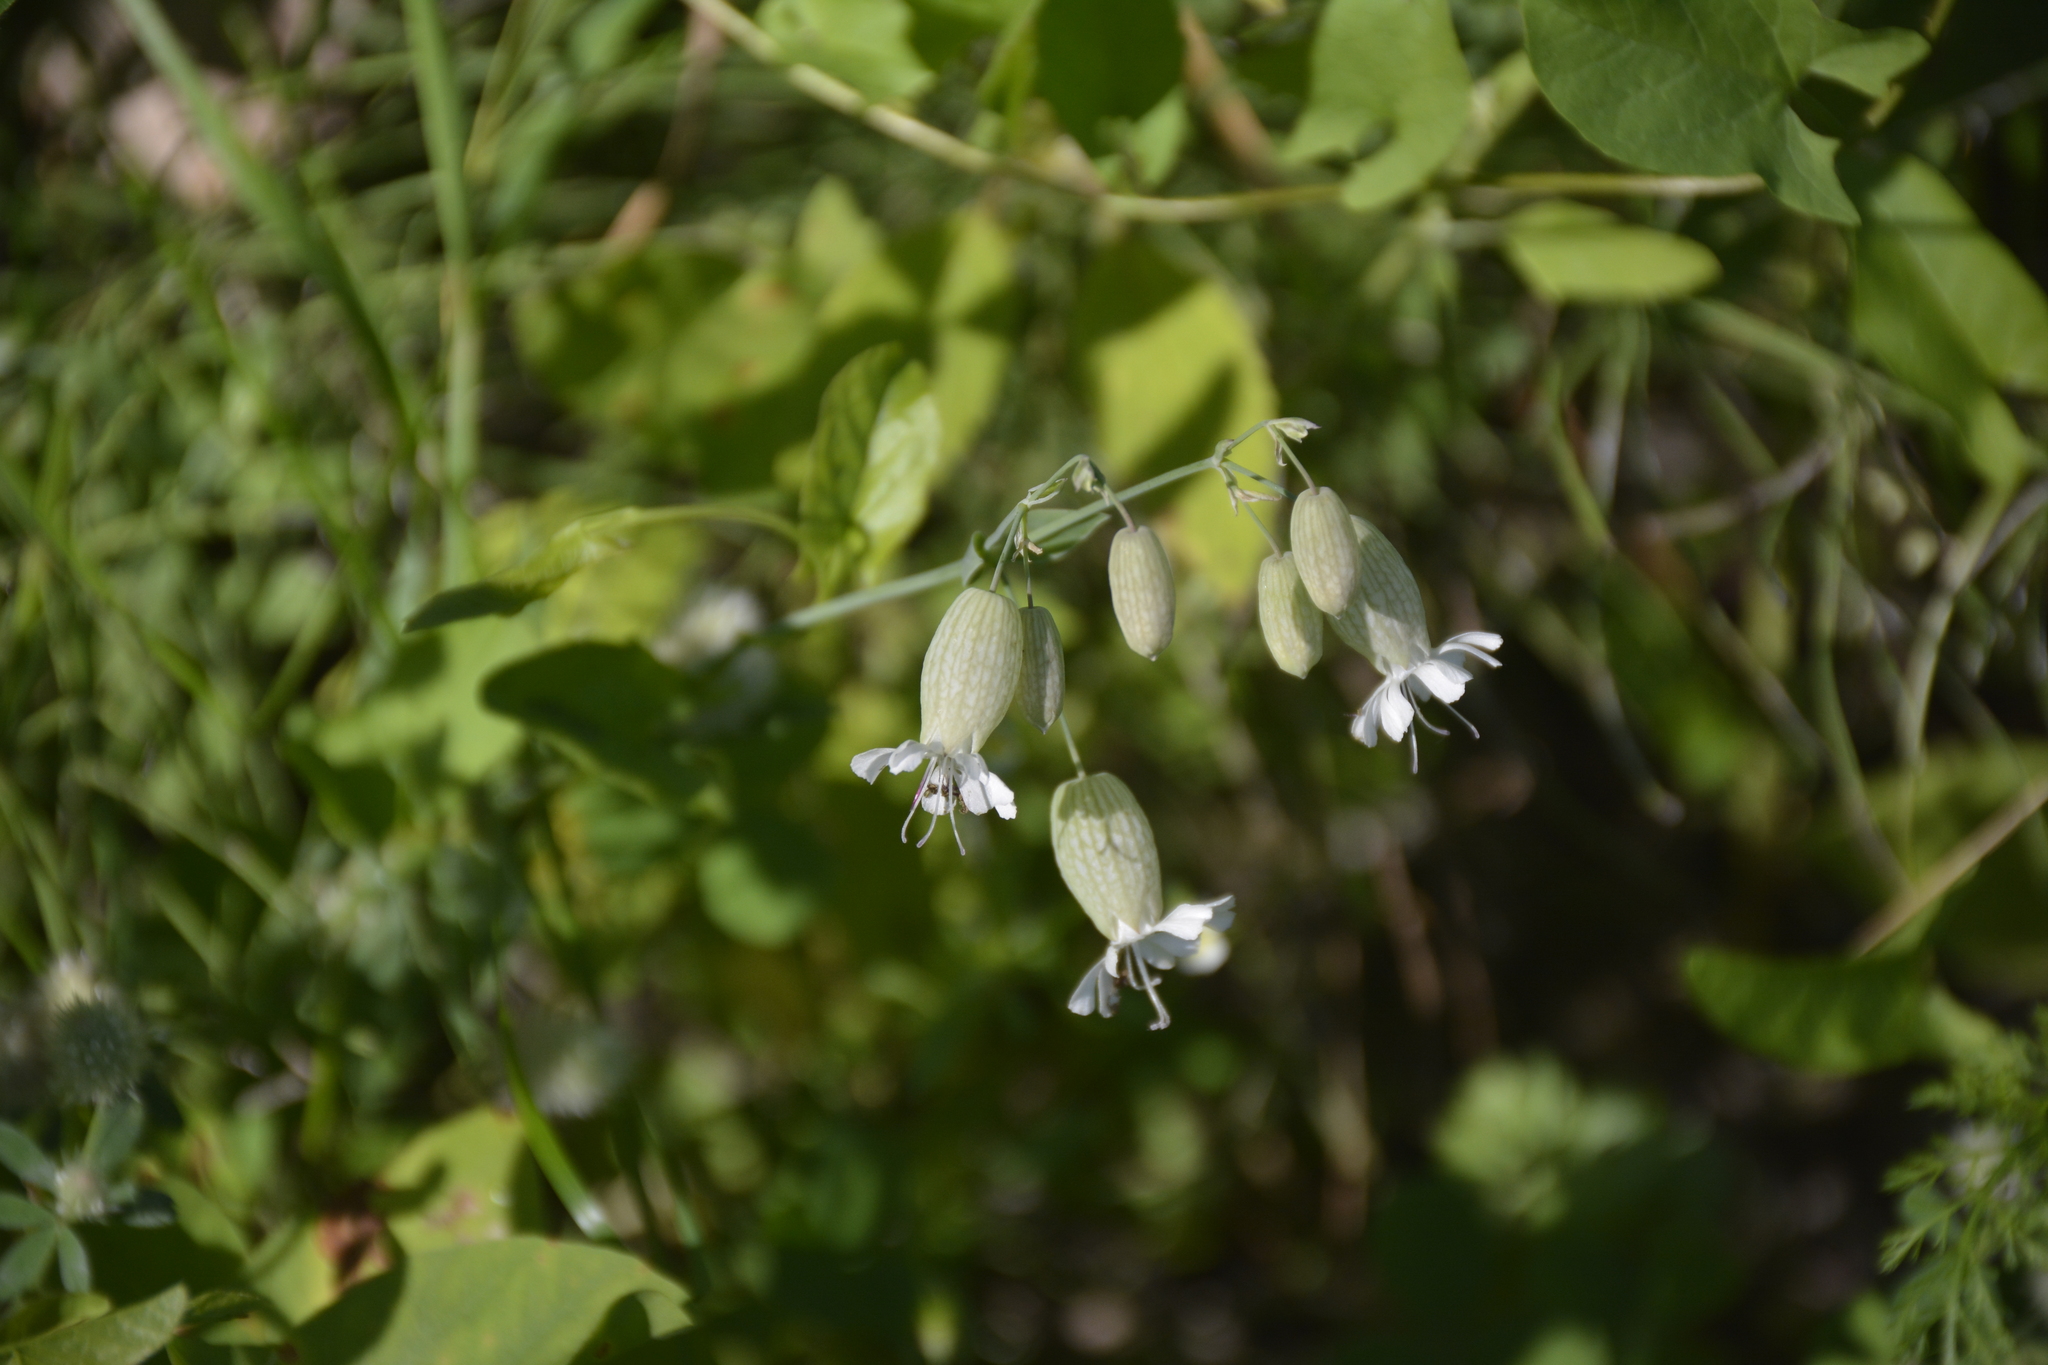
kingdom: Plantae
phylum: Tracheophyta
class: Magnoliopsida
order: Caryophyllales
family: Caryophyllaceae
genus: Silene
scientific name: Silene vulgaris
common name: Bladder campion
